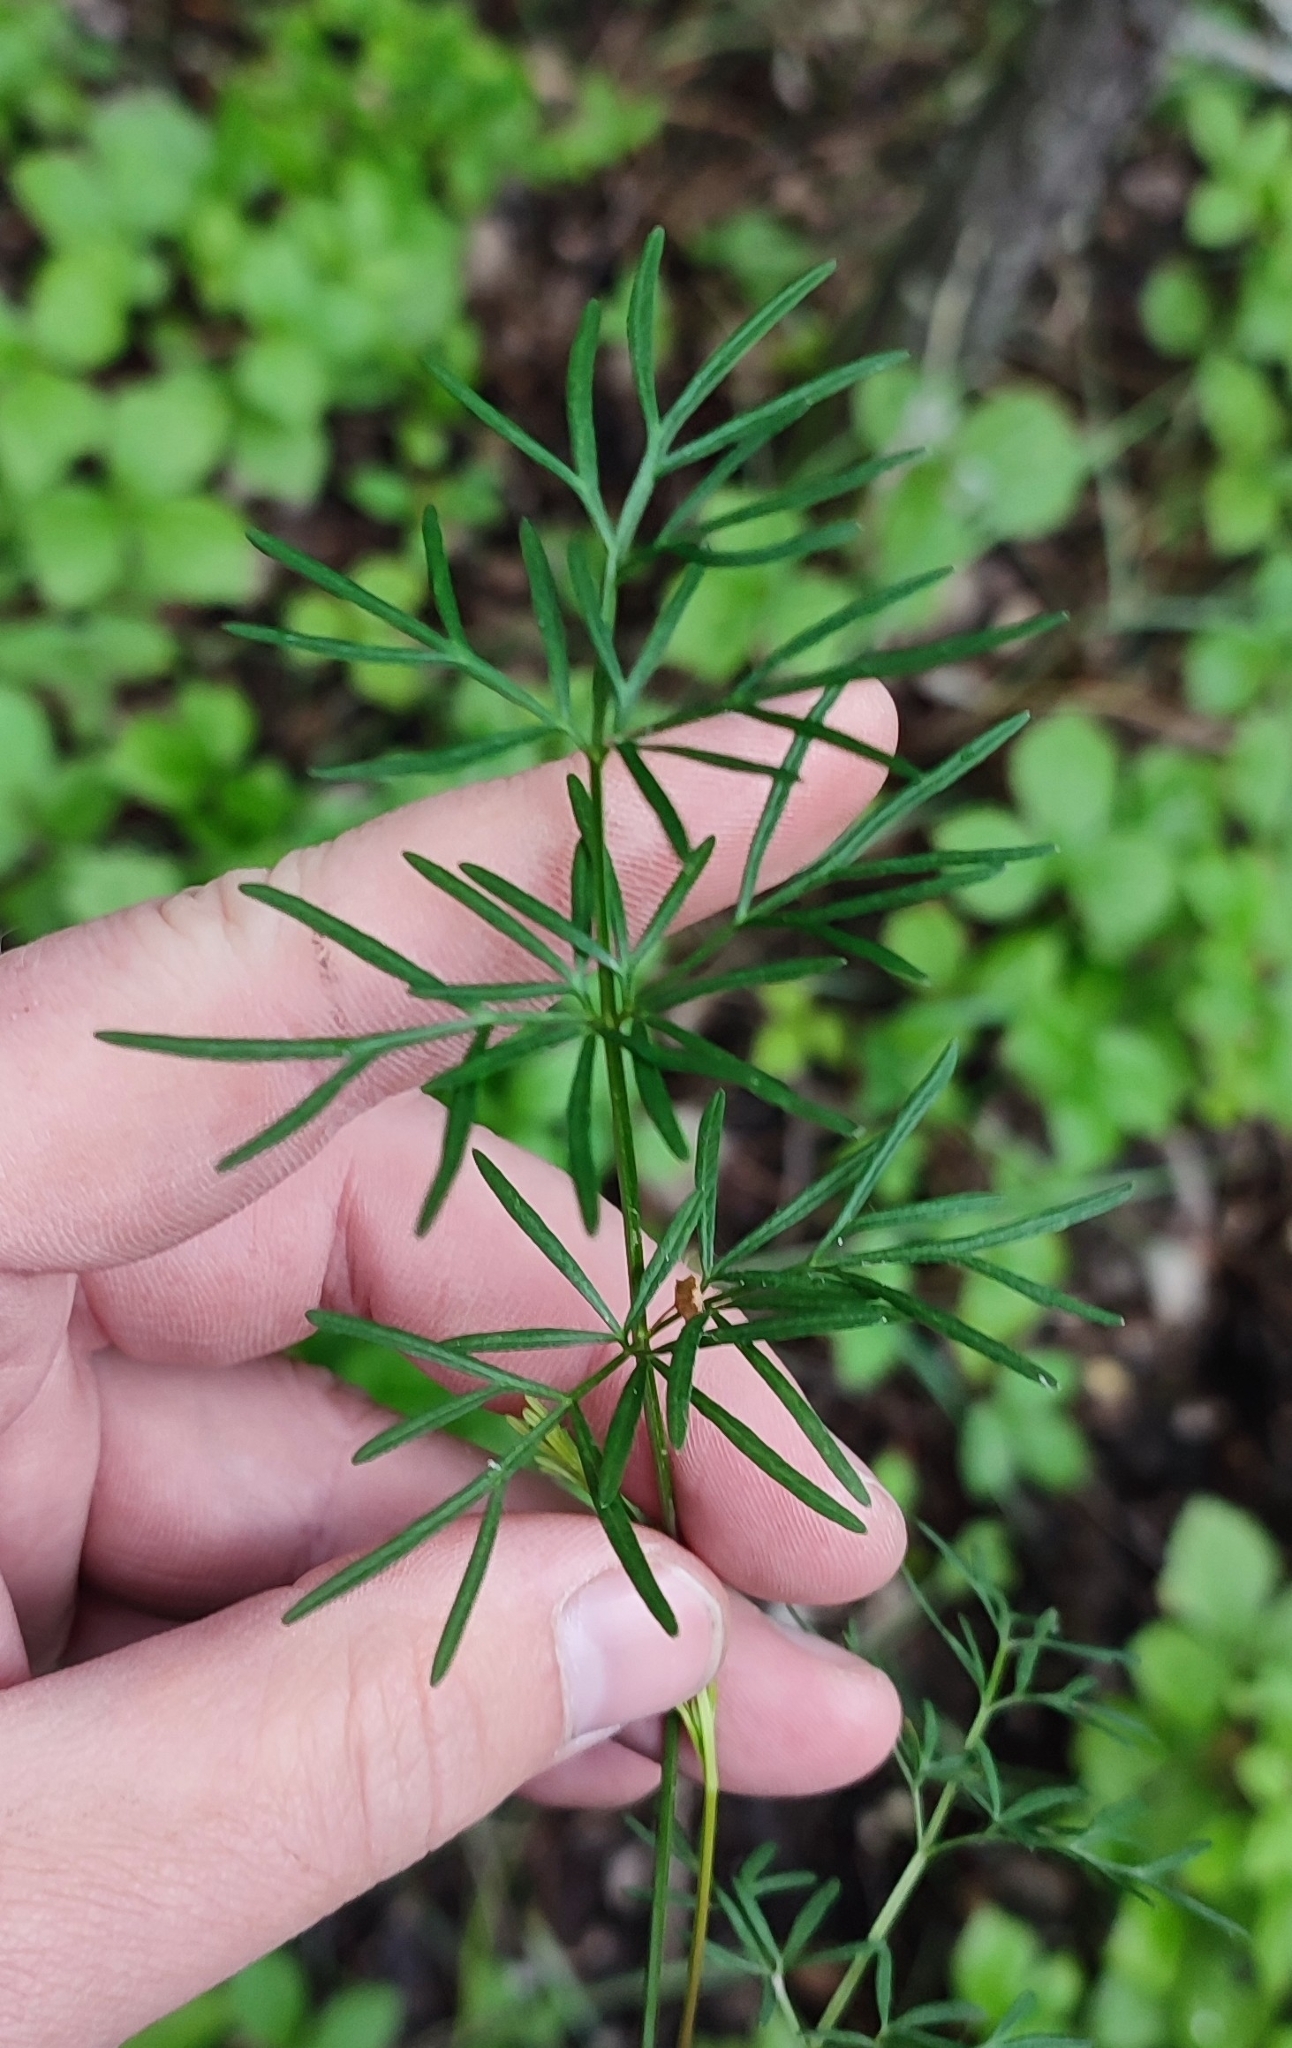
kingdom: Plantae
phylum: Tracheophyta
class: Magnoliopsida
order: Apiales
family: Apiaceae
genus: Kadenia
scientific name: Kadenia dubia
